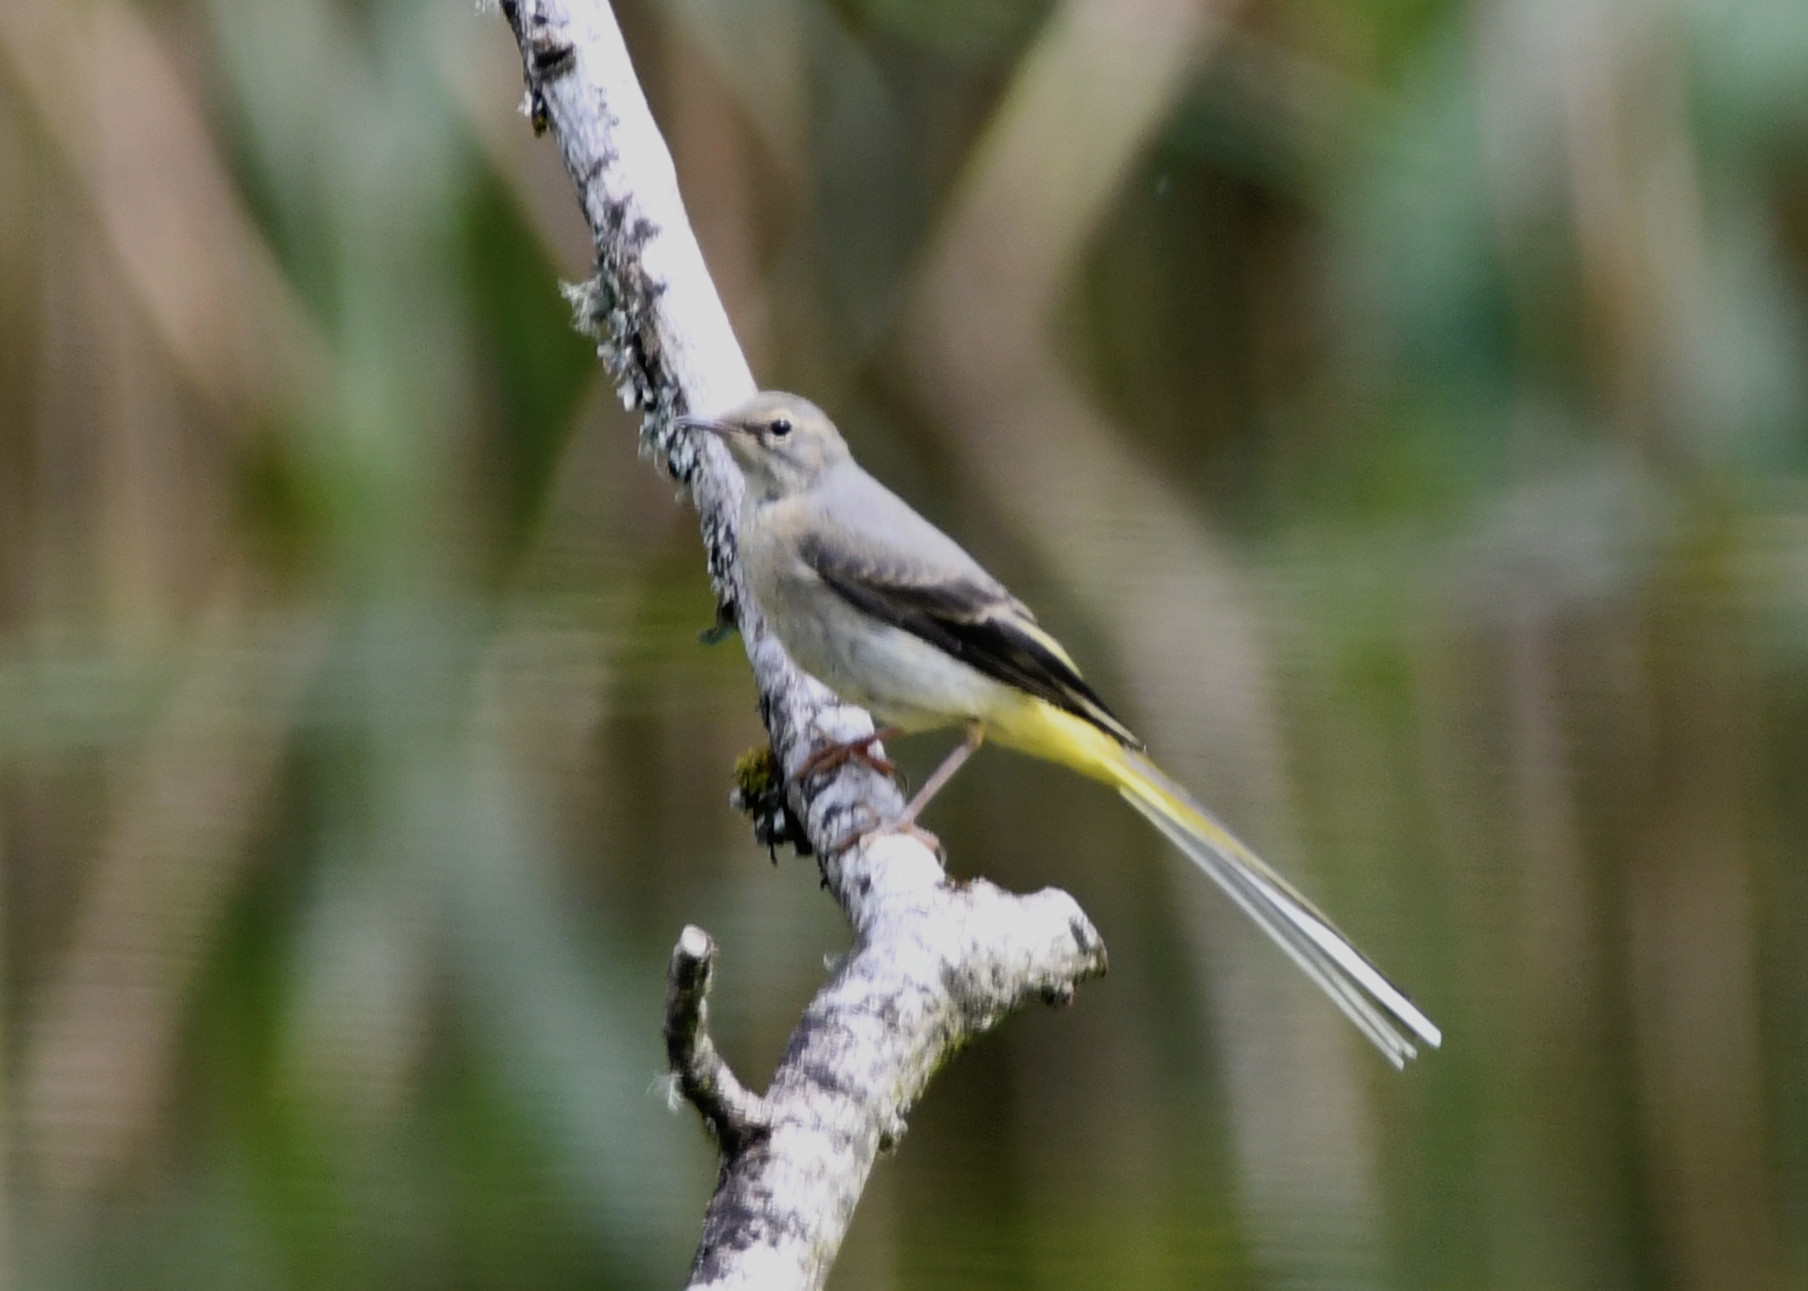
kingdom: Animalia
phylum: Chordata
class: Aves
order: Passeriformes
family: Motacillidae
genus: Motacilla
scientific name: Motacilla cinerea
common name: Grey wagtail
